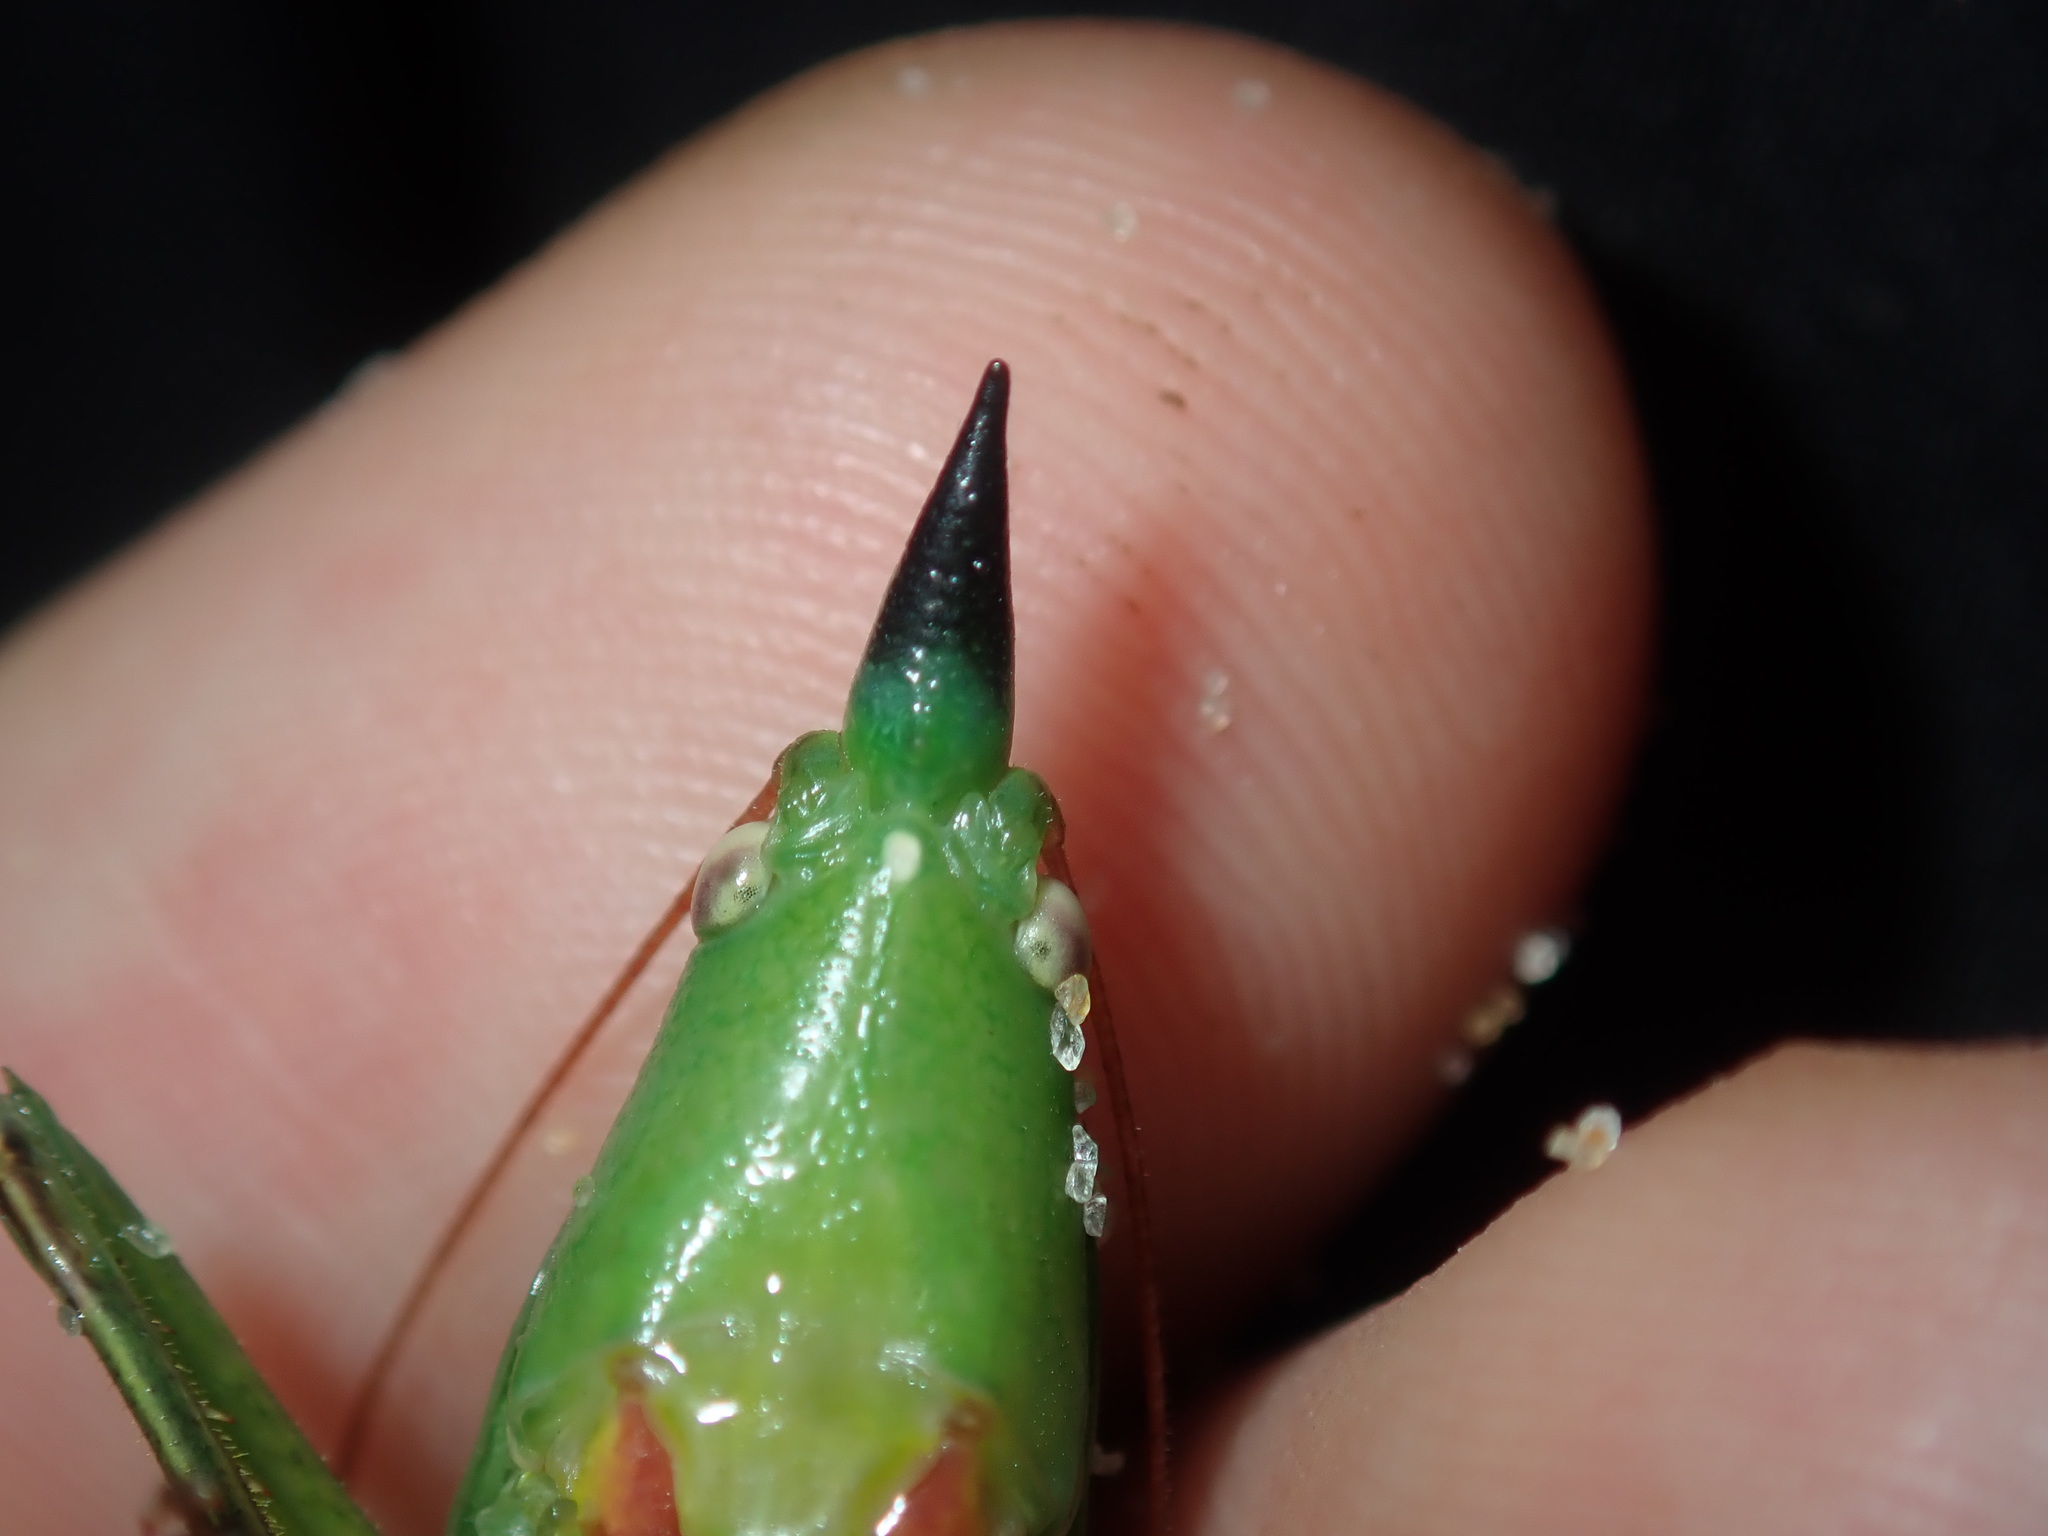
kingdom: Animalia
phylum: Arthropoda
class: Insecta
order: Orthoptera
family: Tettigoniidae
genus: Pseudorhynchus
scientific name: Pseudorhynchus mimeticus
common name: Mimicking snout-nosed katydid
